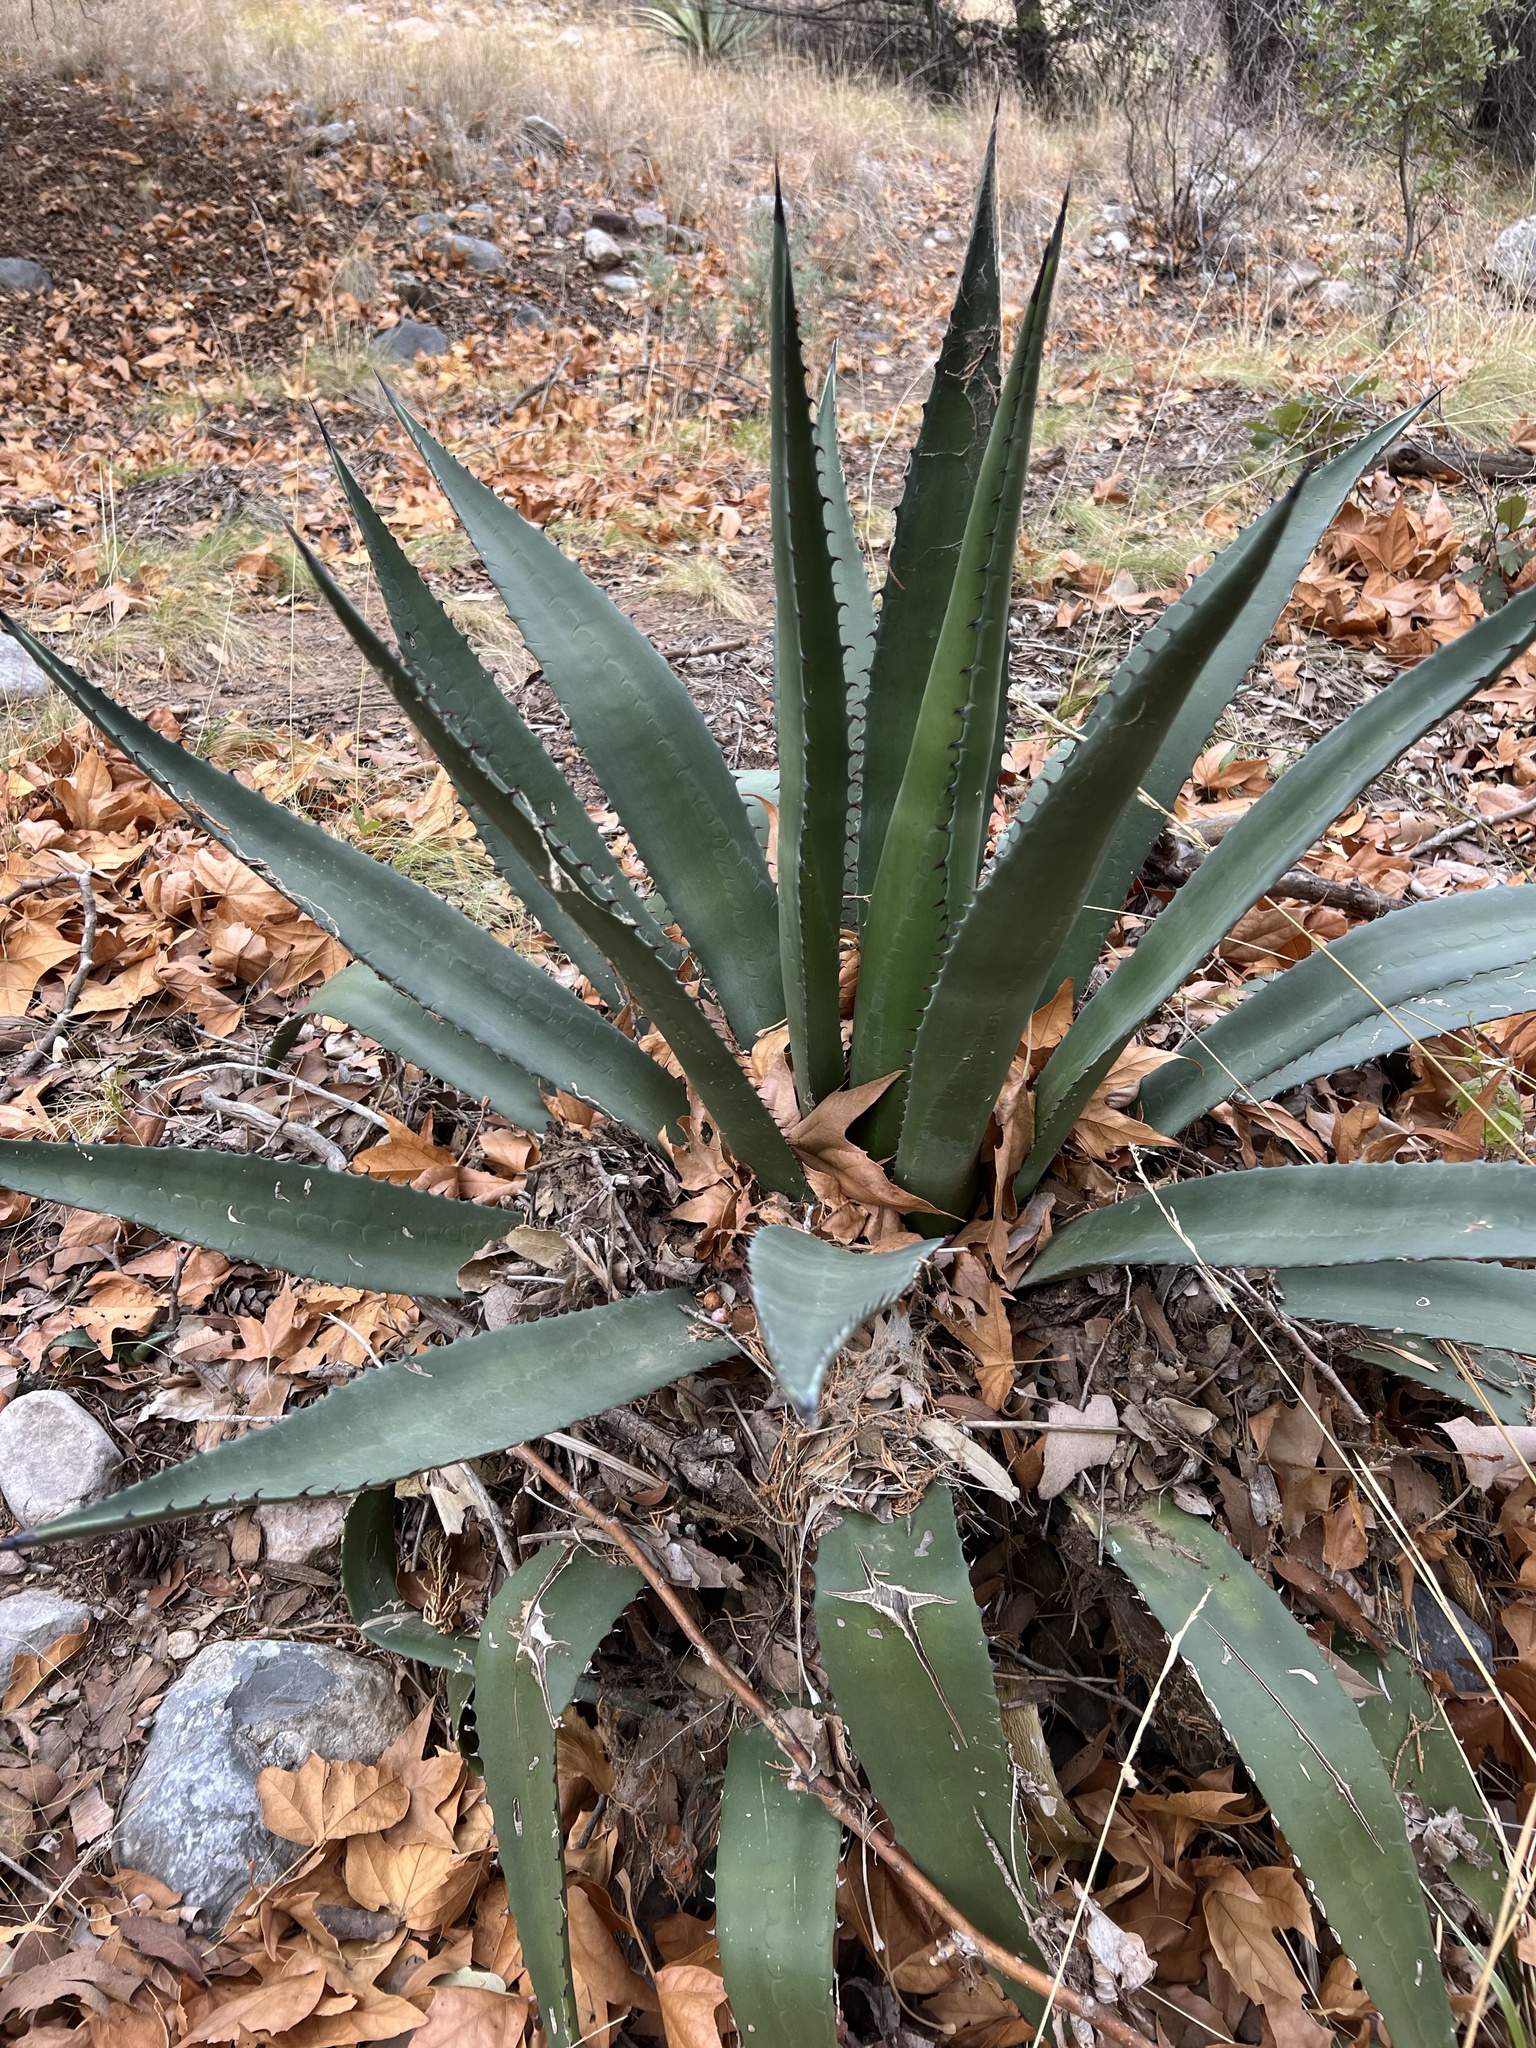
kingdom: Plantae
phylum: Tracheophyta
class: Liliopsida
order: Asparagales
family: Asparagaceae
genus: Agave
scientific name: Agave palmeri
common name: Palmer agave
